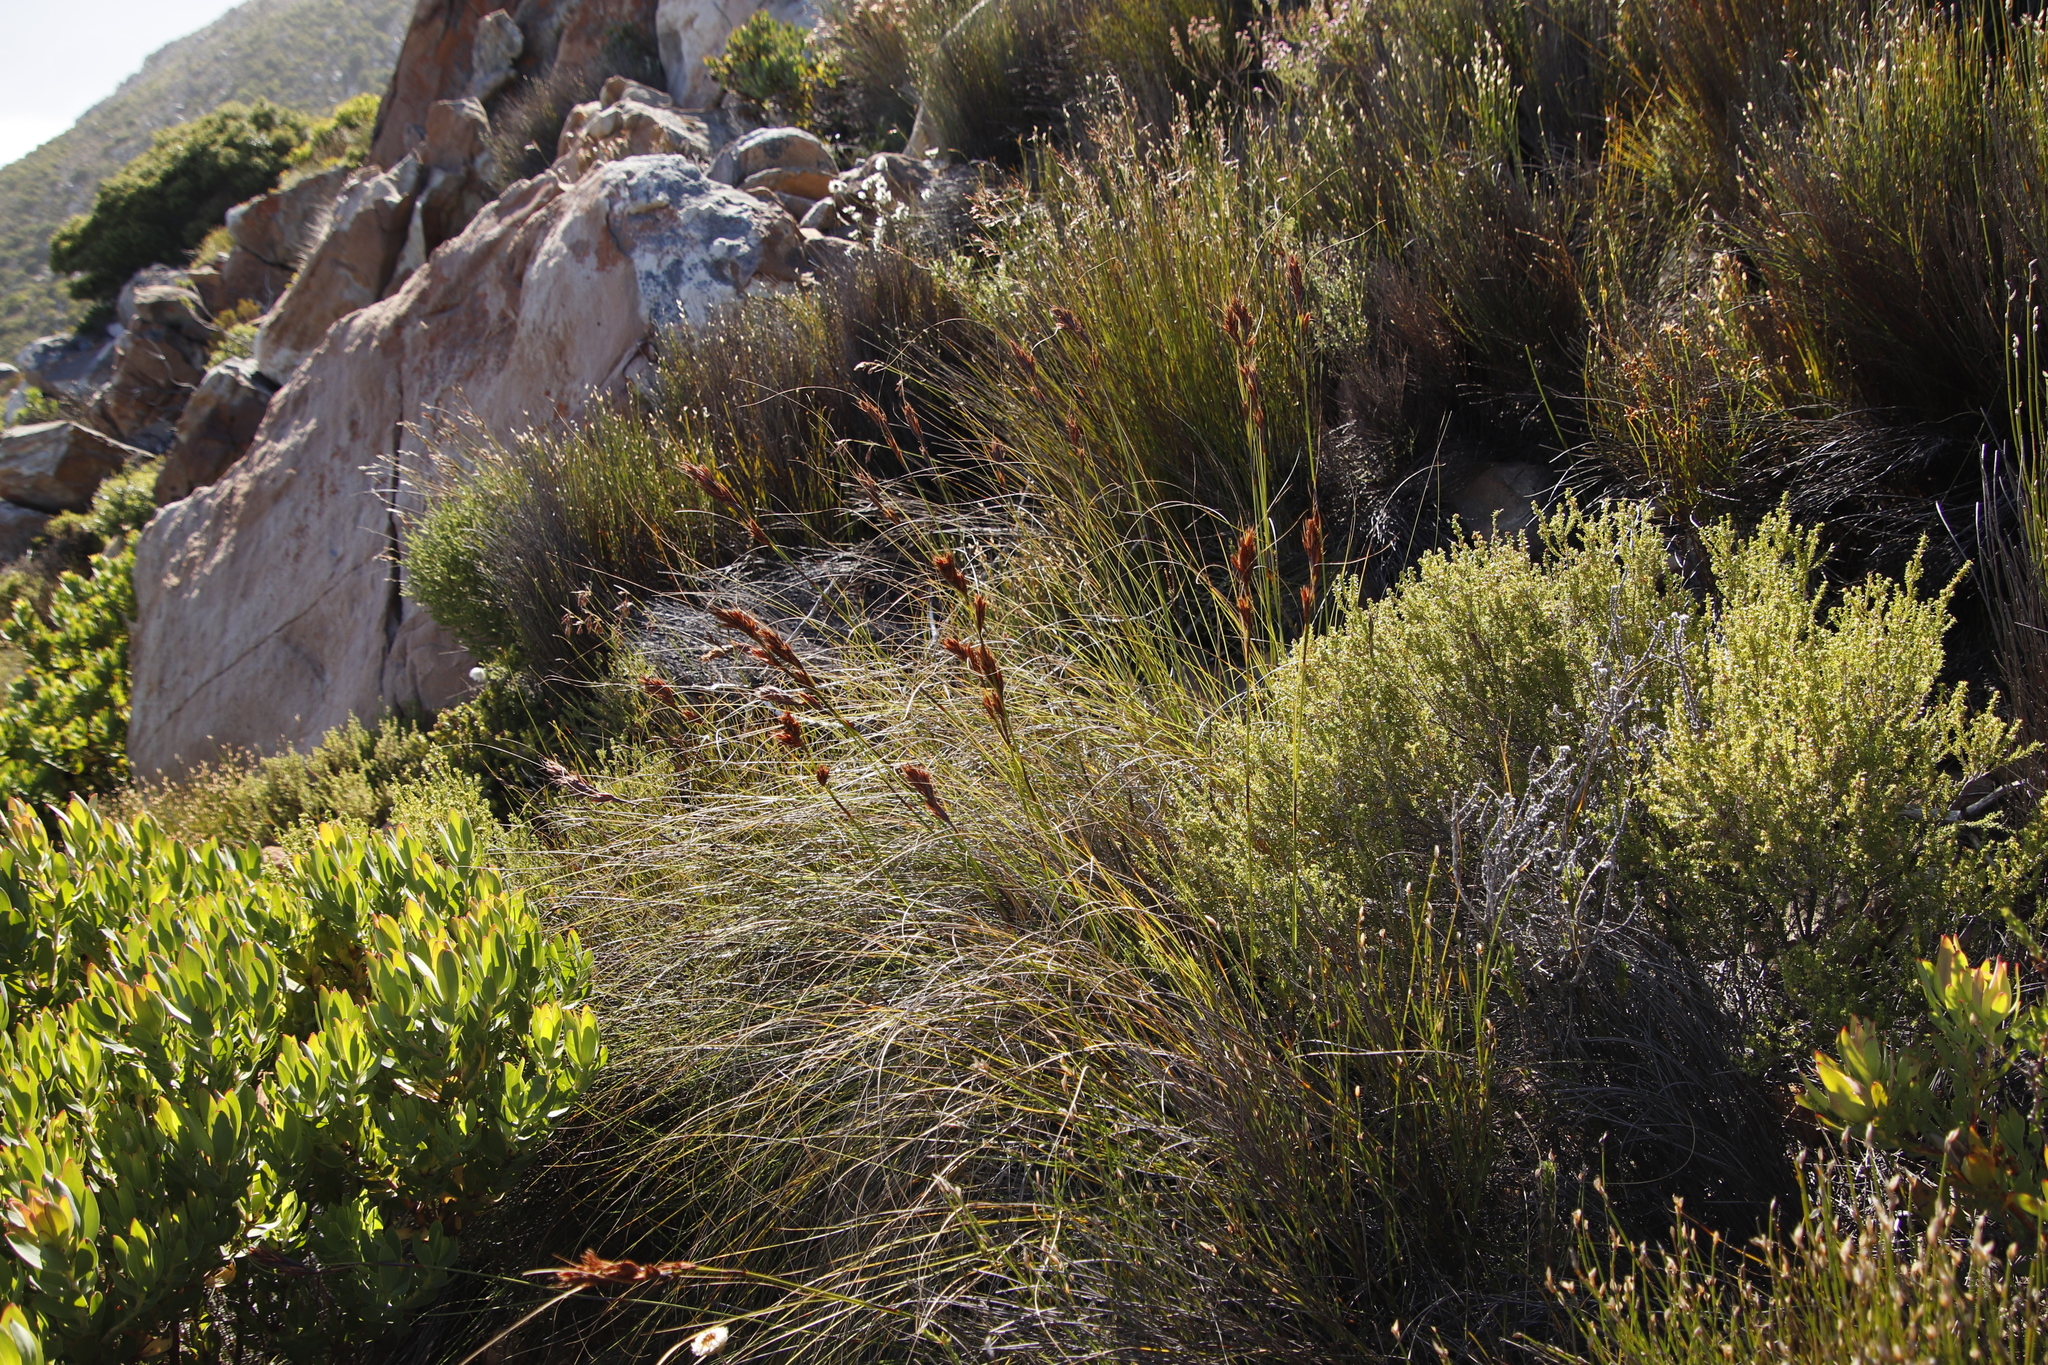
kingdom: Plantae
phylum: Tracheophyta
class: Liliopsida
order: Poales
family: Cyperaceae
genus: Tetraria
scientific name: Tetraria ustulata
